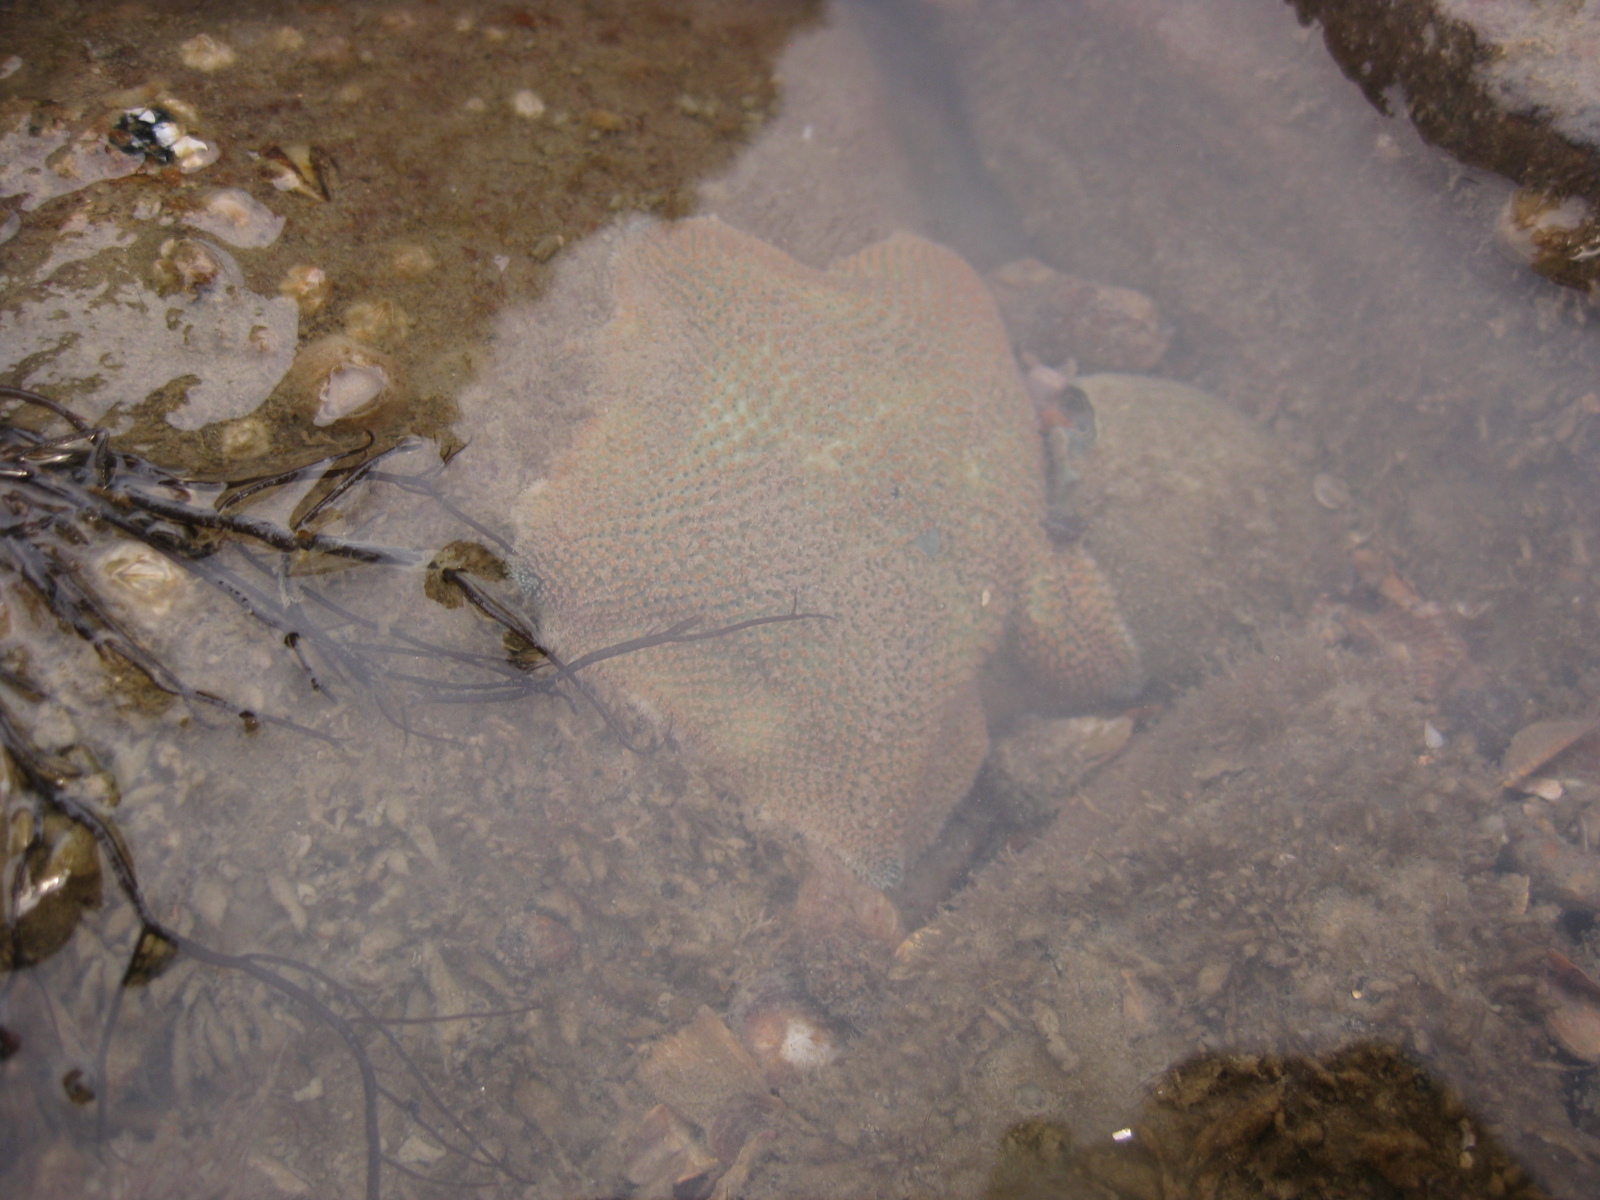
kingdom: Animalia
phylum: Echinodermata
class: Asteroidea
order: Valvatida
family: Asterinidae
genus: Patiriella
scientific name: Patiriella regularis
